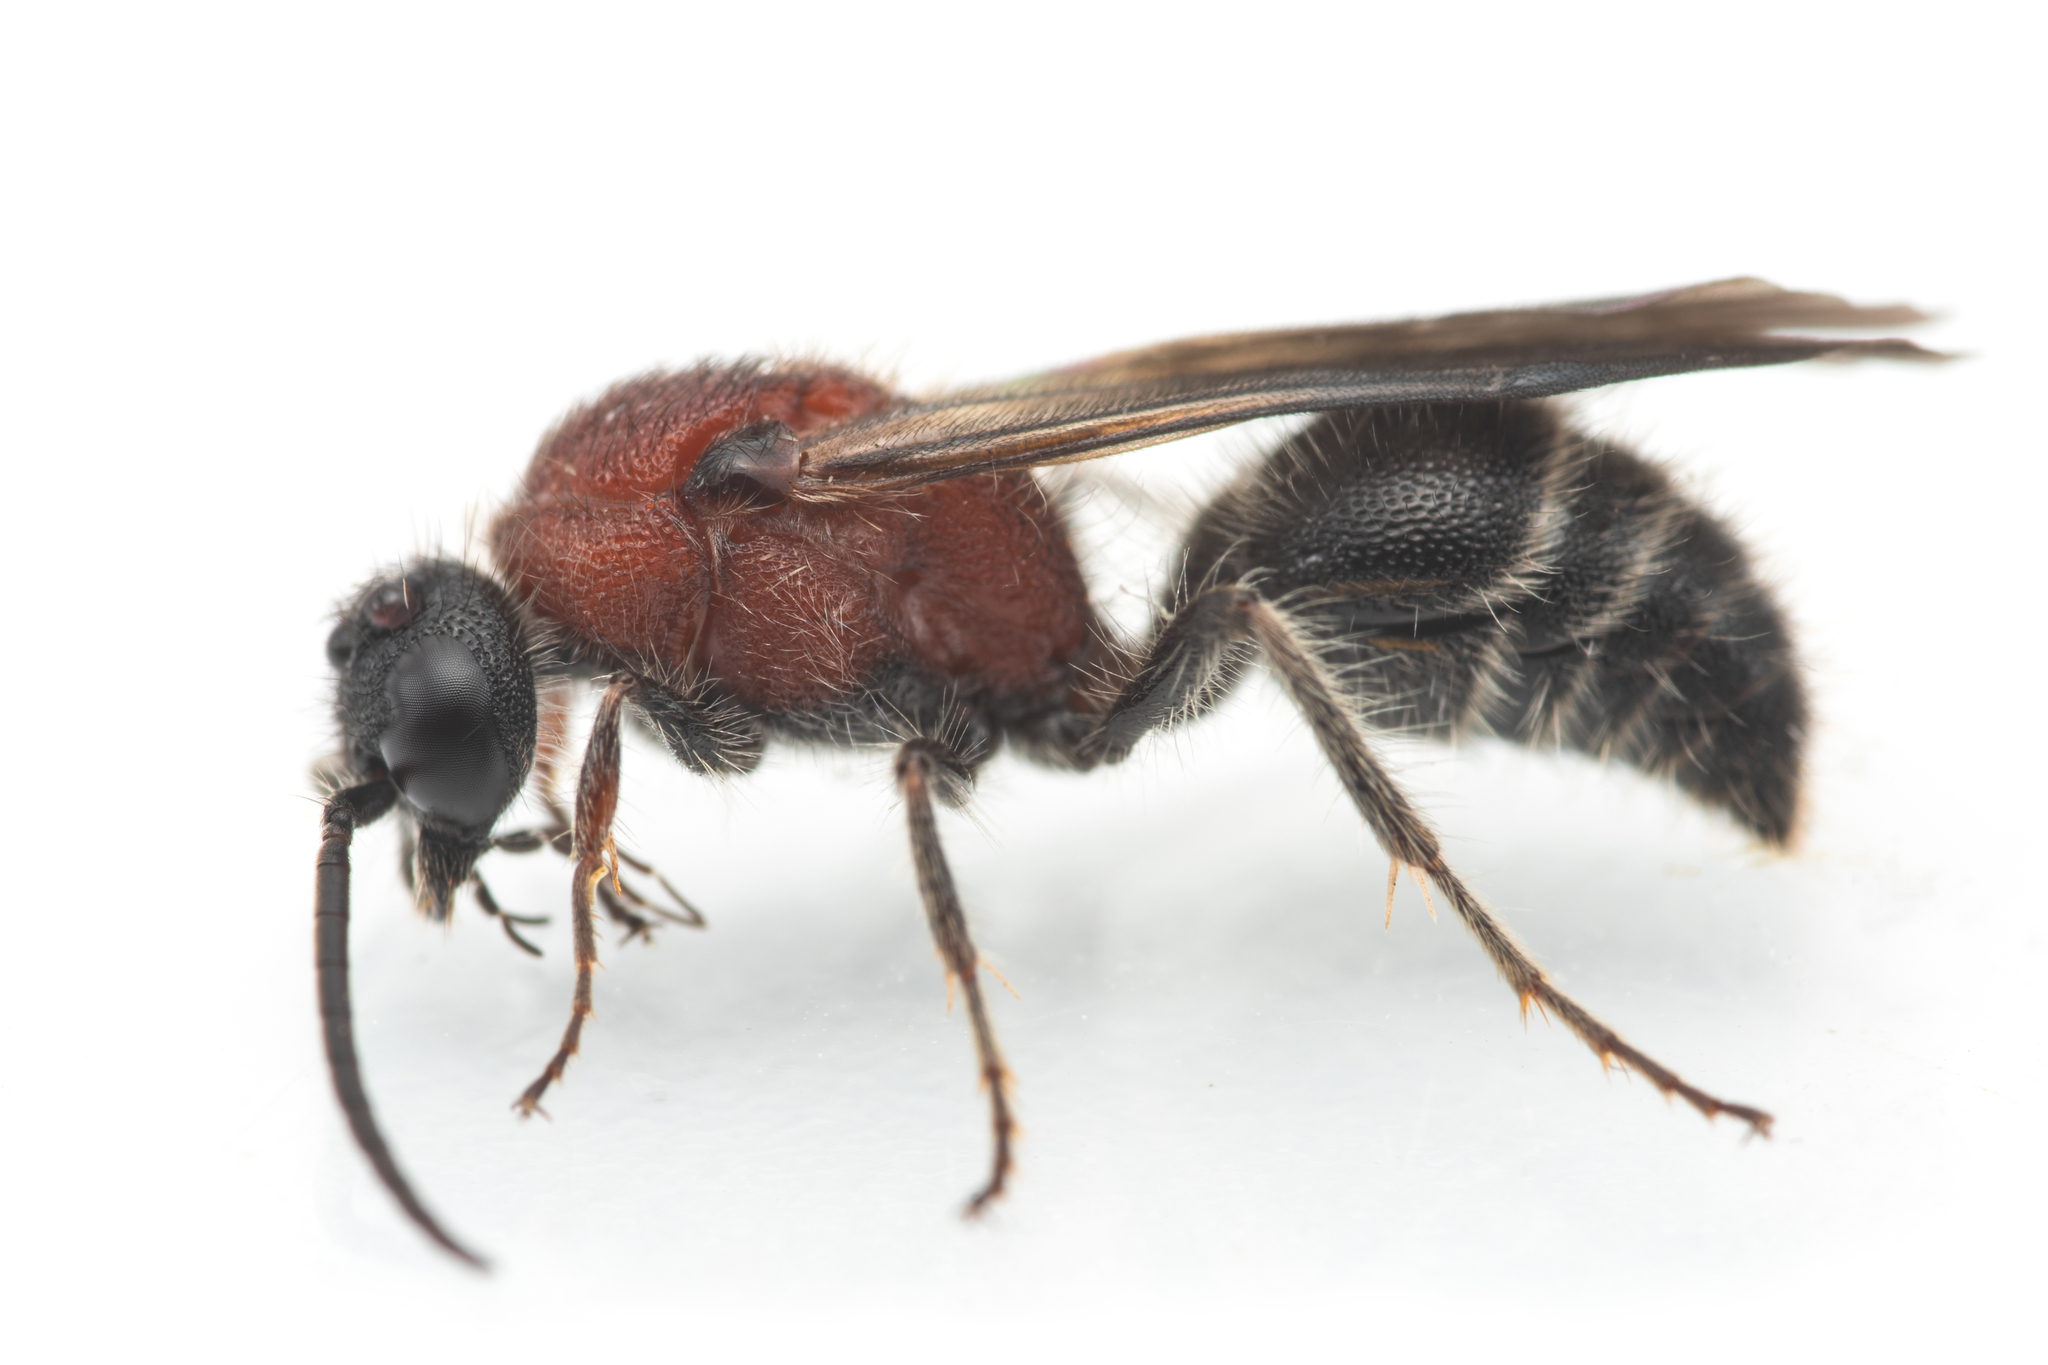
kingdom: Animalia
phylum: Arthropoda
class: Insecta
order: Hymenoptera
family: Mutillidae
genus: Smicromyrme
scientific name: Smicromyrme suberrata
